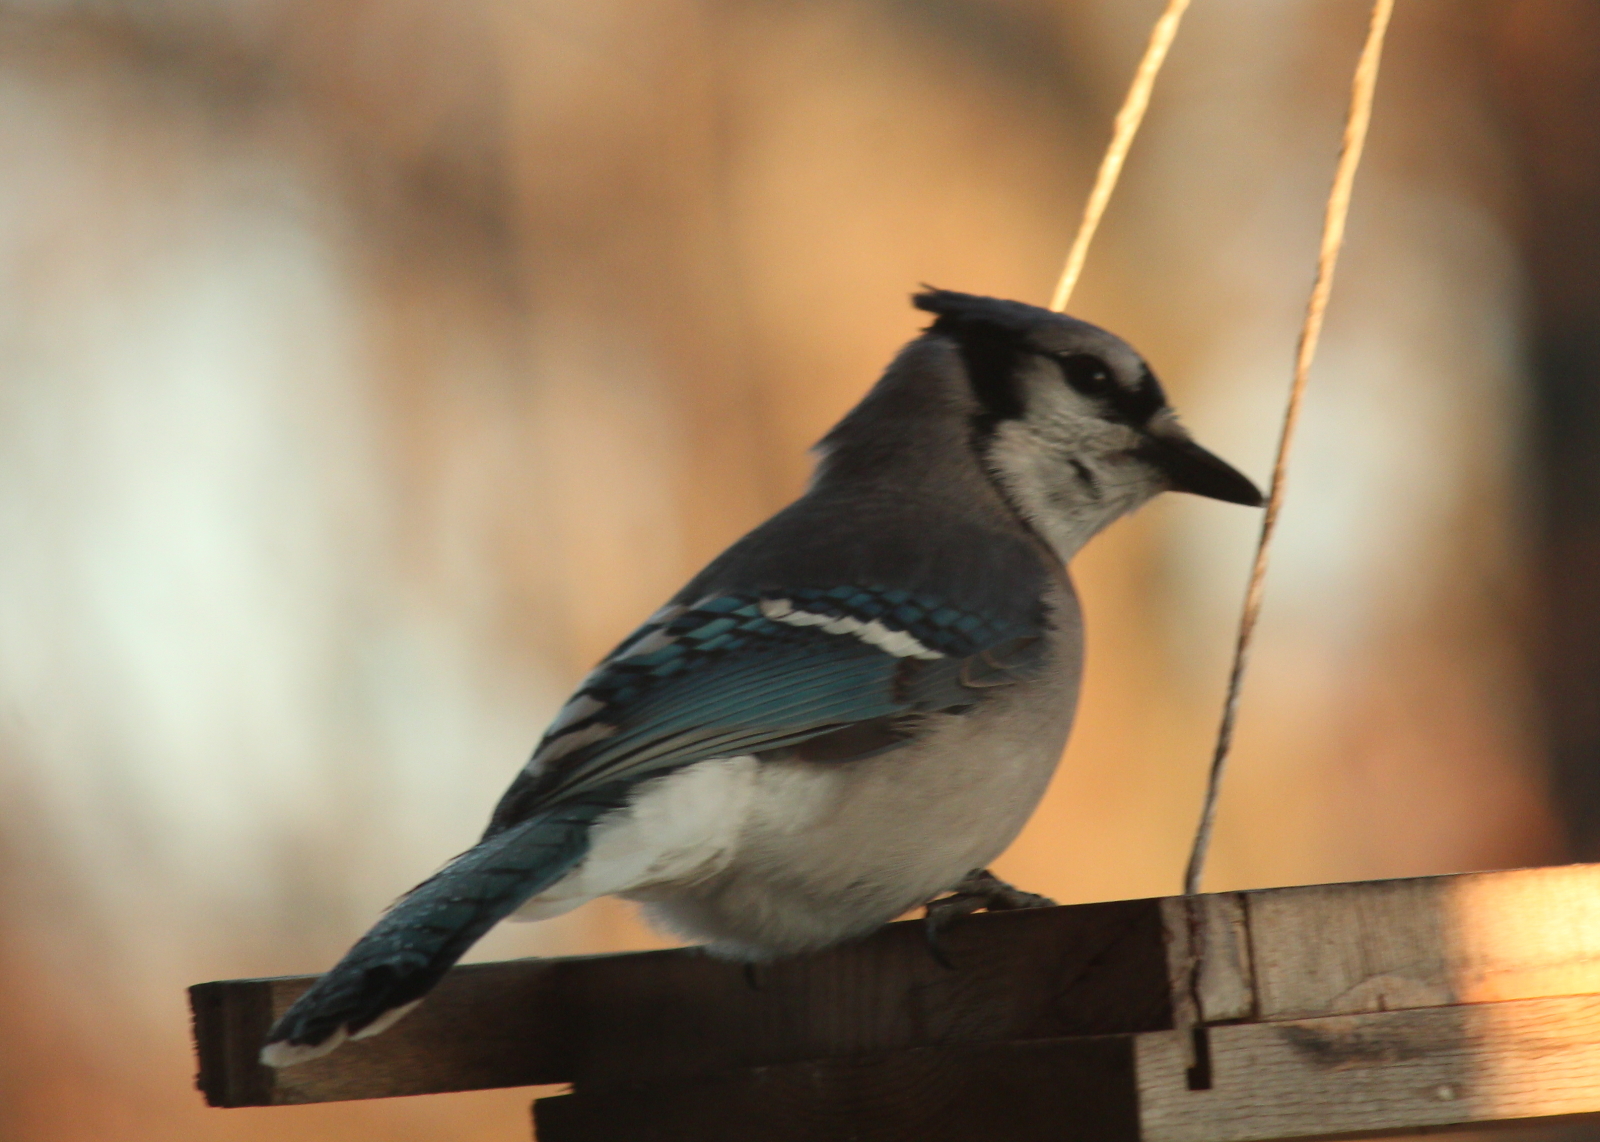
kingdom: Animalia
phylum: Chordata
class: Aves
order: Passeriformes
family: Corvidae
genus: Cyanocitta
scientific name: Cyanocitta cristata
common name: Blue jay
